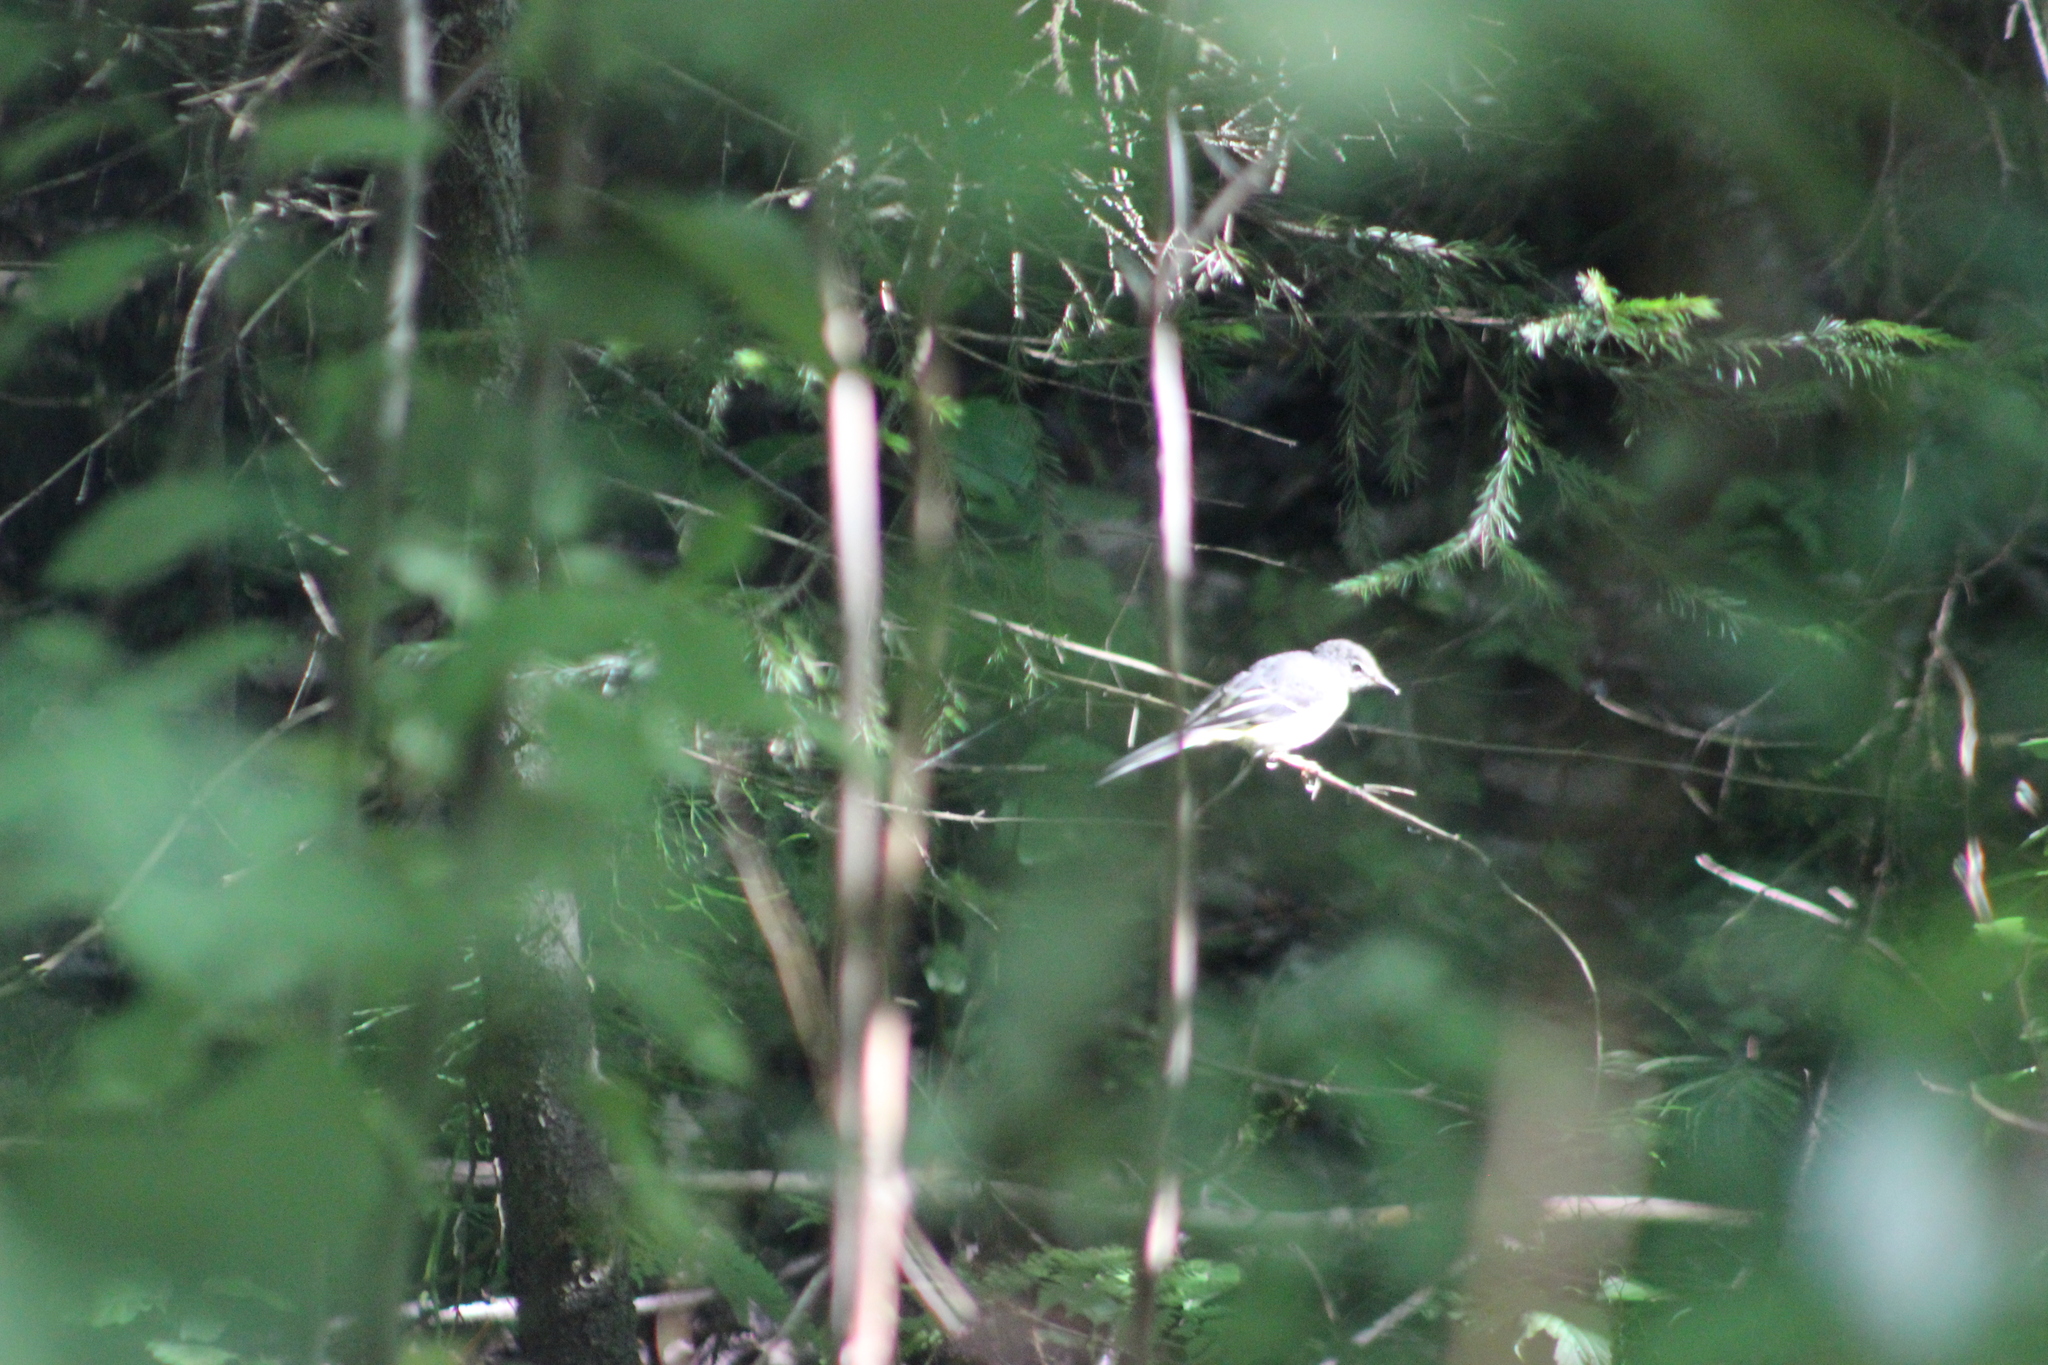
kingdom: Animalia
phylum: Chordata
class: Aves
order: Passeriformes
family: Motacillidae
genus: Motacilla
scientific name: Motacilla cinerea
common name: Grey wagtail
